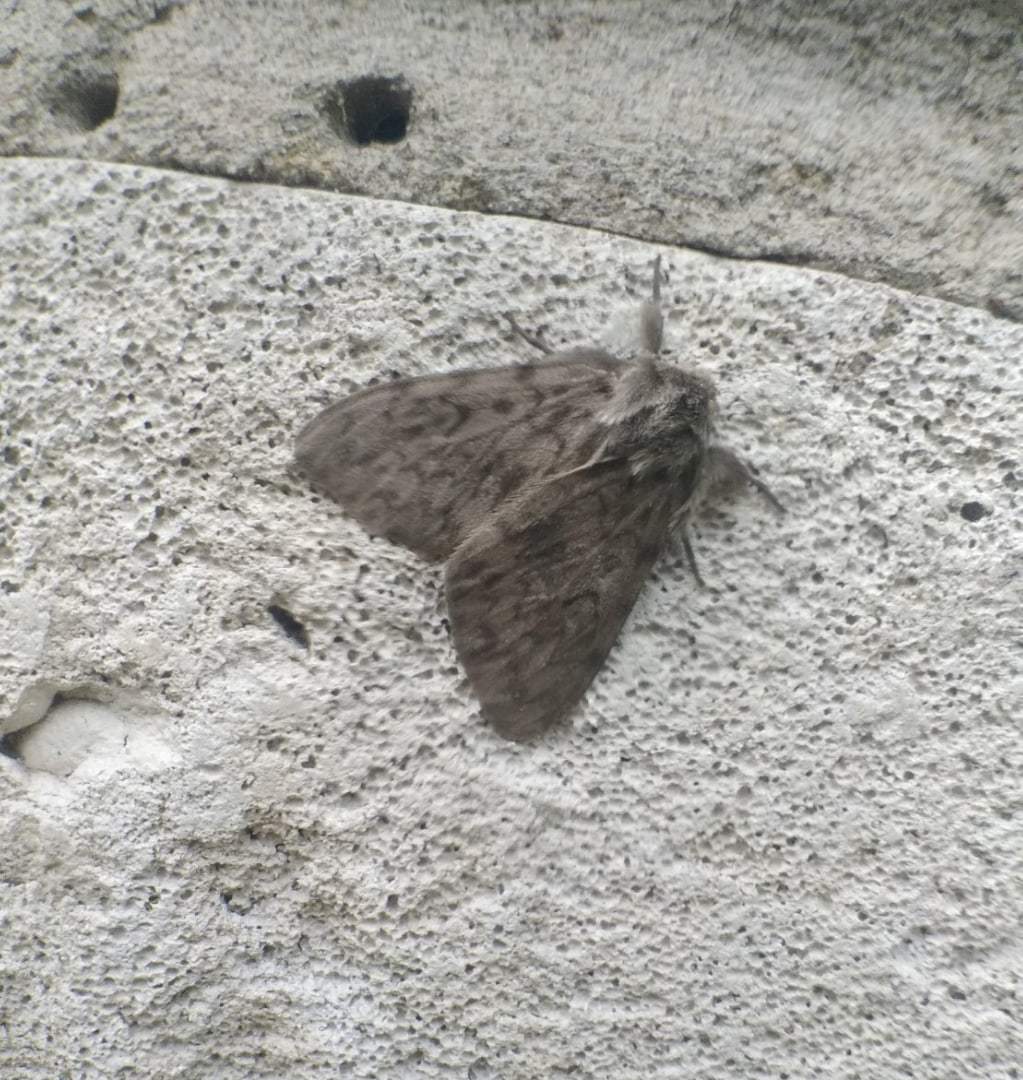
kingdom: Animalia
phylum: Arthropoda
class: Insecta
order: Lepidoptera
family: Erebidae
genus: Lymantria
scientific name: Lymantria monacha
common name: Black arches
